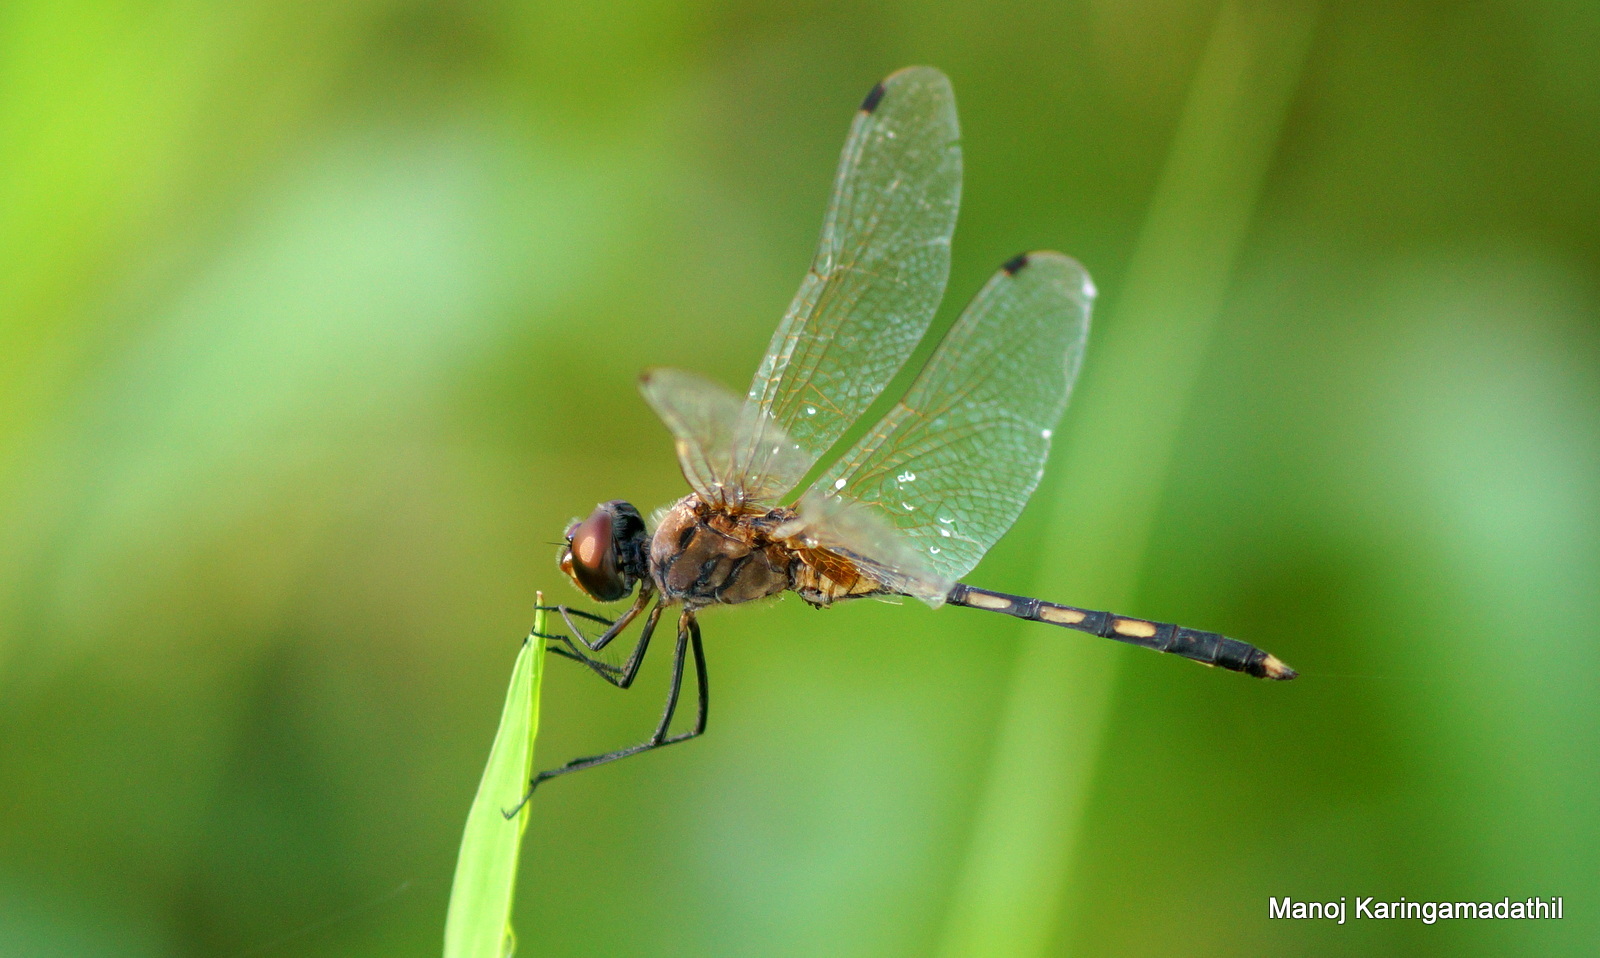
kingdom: Animalia
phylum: Arthropoda
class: Insecta
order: Odonata
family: Libellulidae
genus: Trithemis
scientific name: Trithemis pallidinervis
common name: Dancing dropwing
